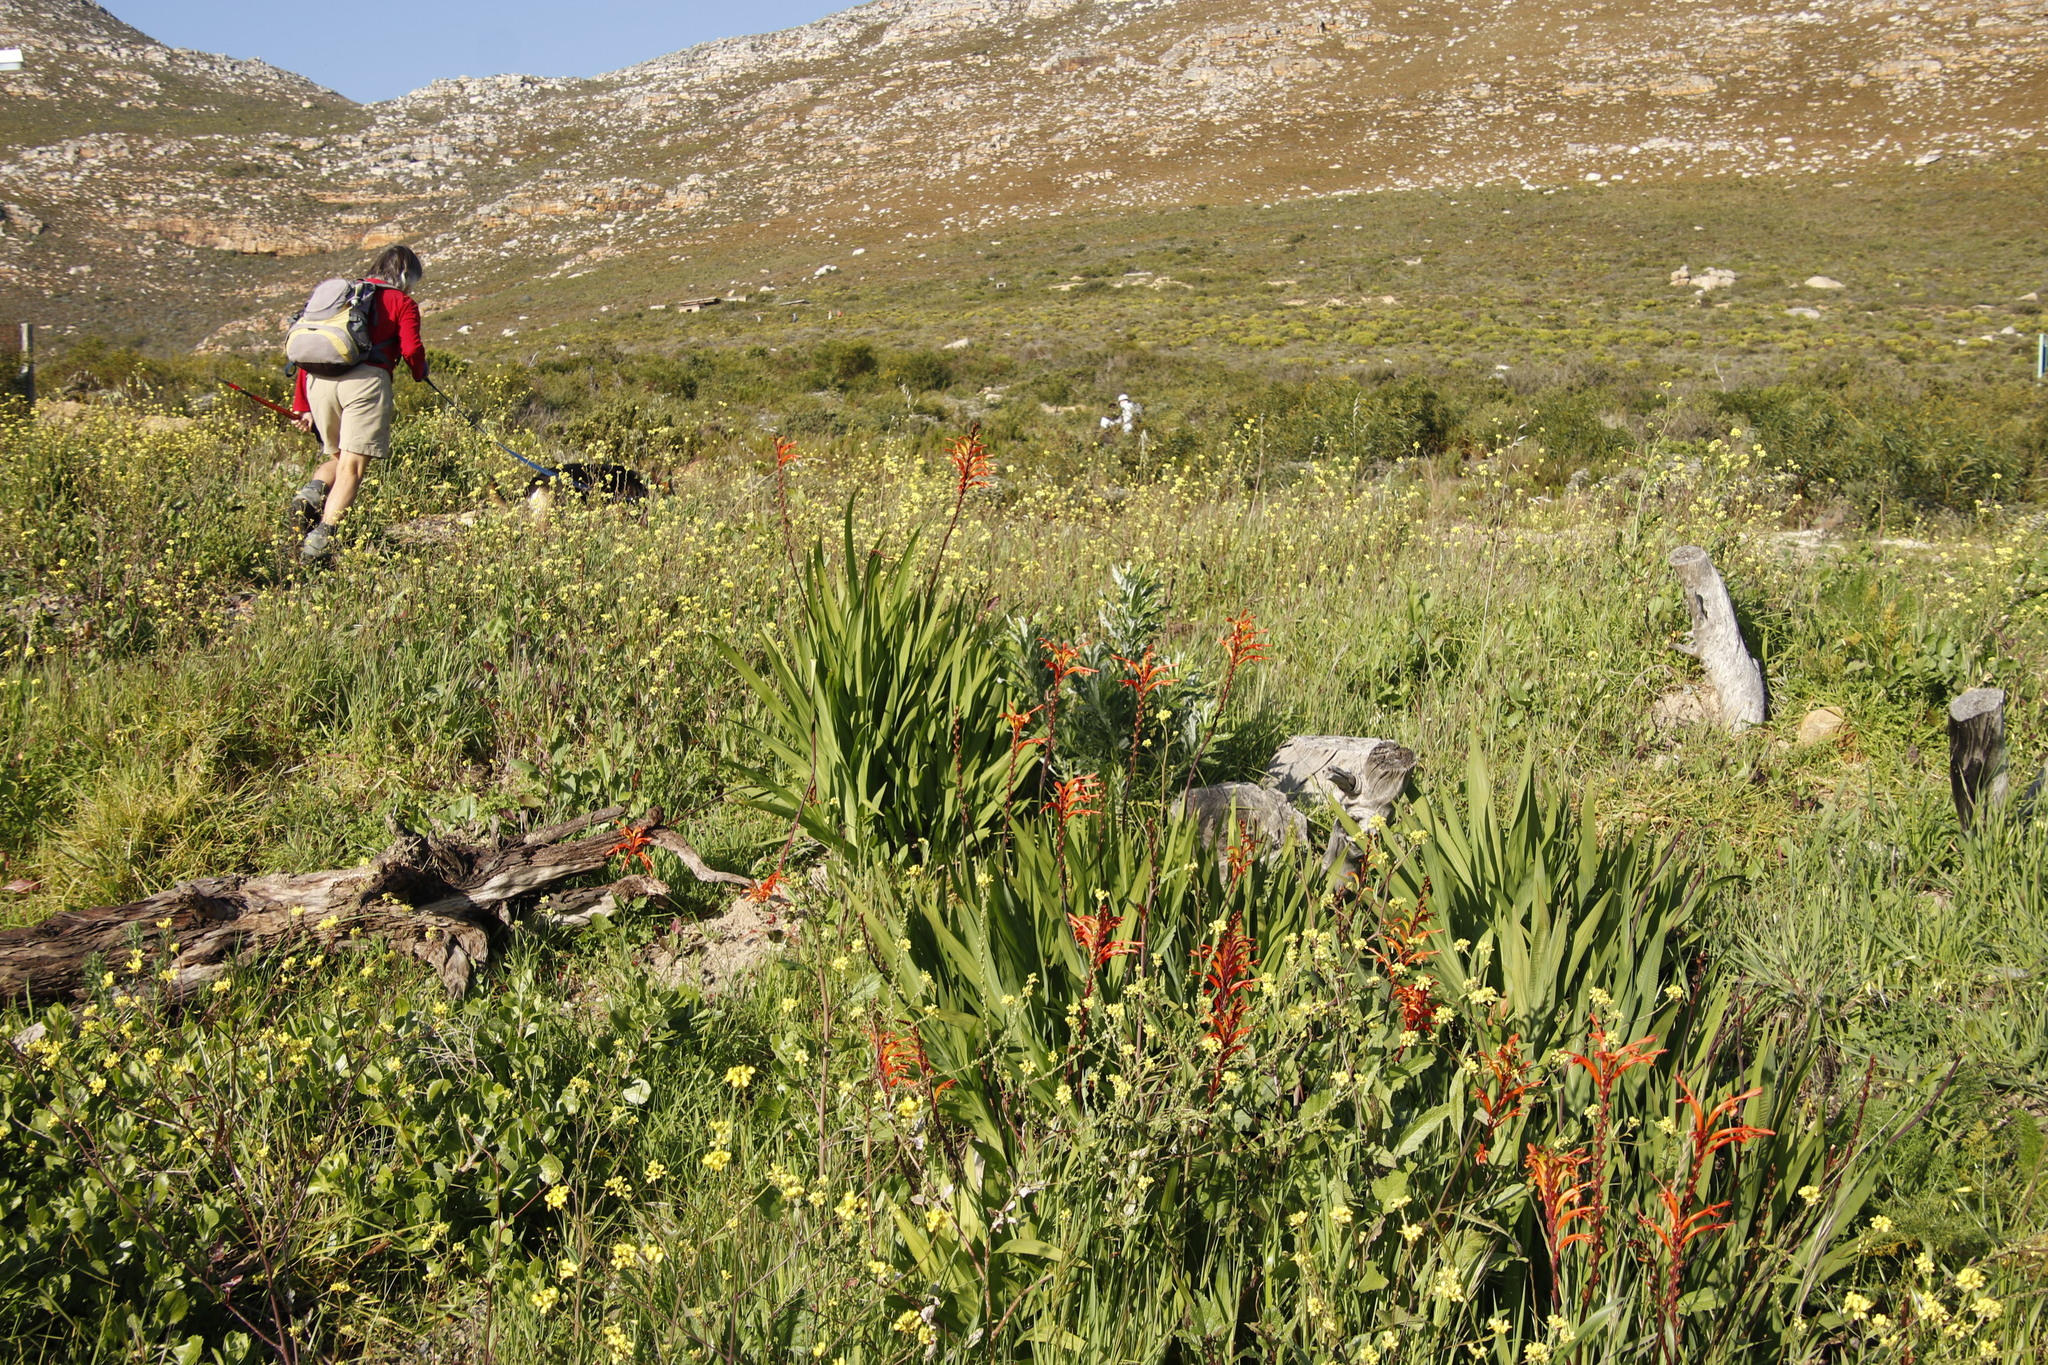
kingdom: Plantae
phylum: Tracheophyta
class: Liliopsida
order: Asparagales
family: Iridaceae
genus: Chasmanthe
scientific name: Chasmanthe floribunda
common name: African cornflag
